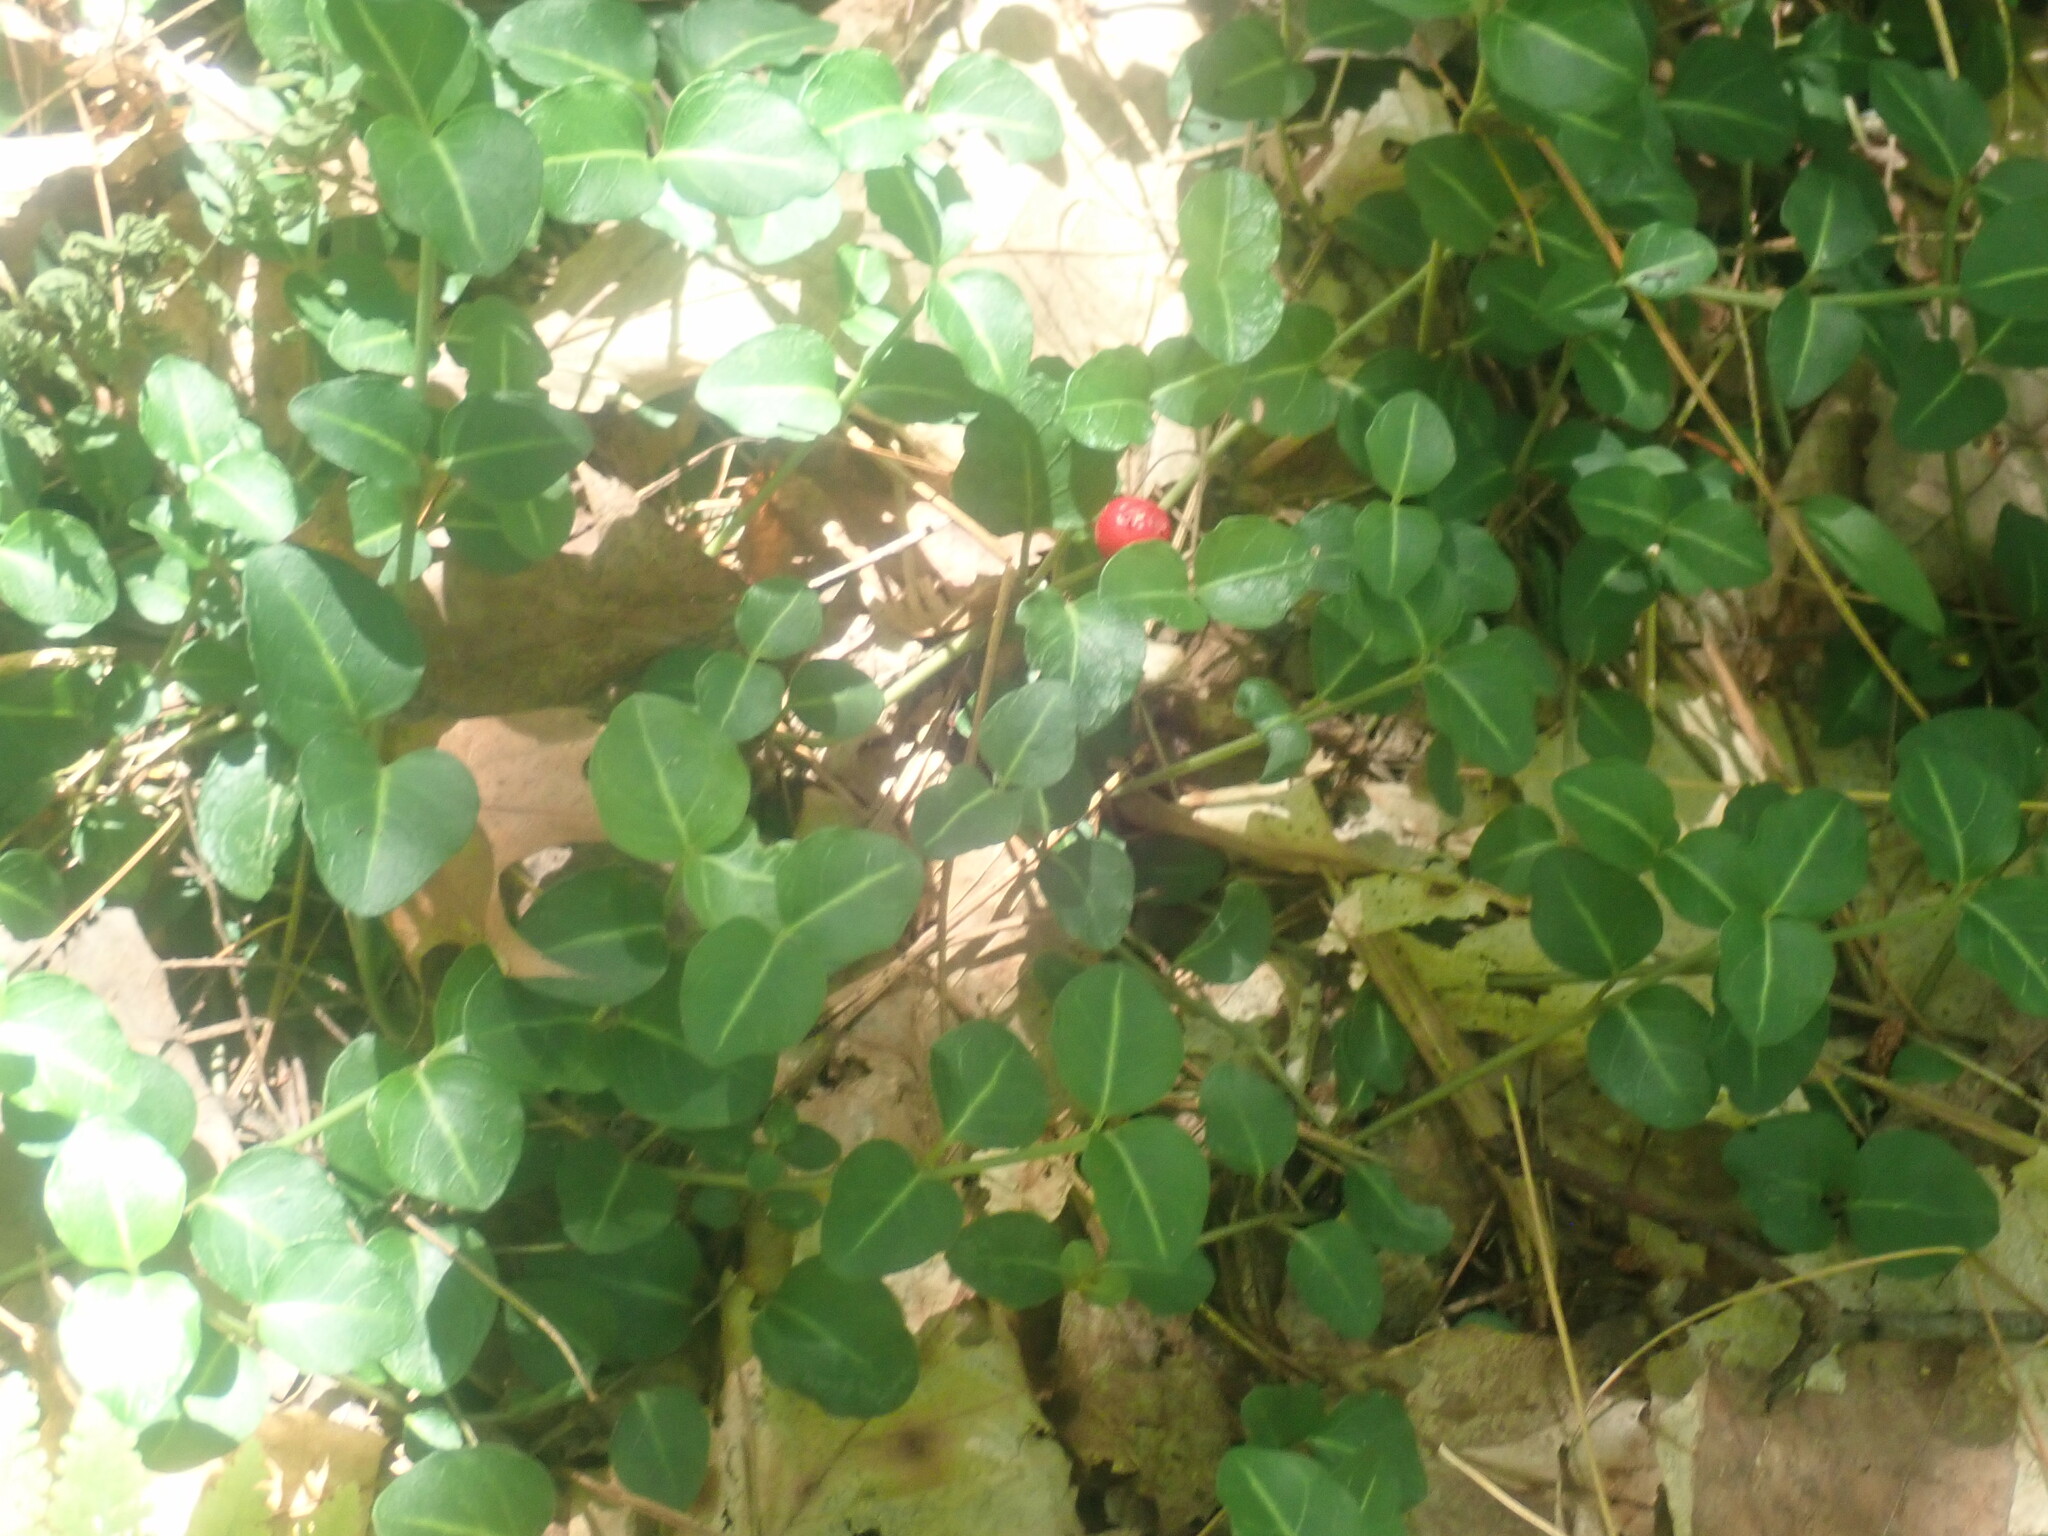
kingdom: Plantae
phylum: Tracheophyta
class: Magnoliopsida
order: Gentianales
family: Rubiaceae
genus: Mitchella
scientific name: Mitchella repens
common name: Partridge-berry
